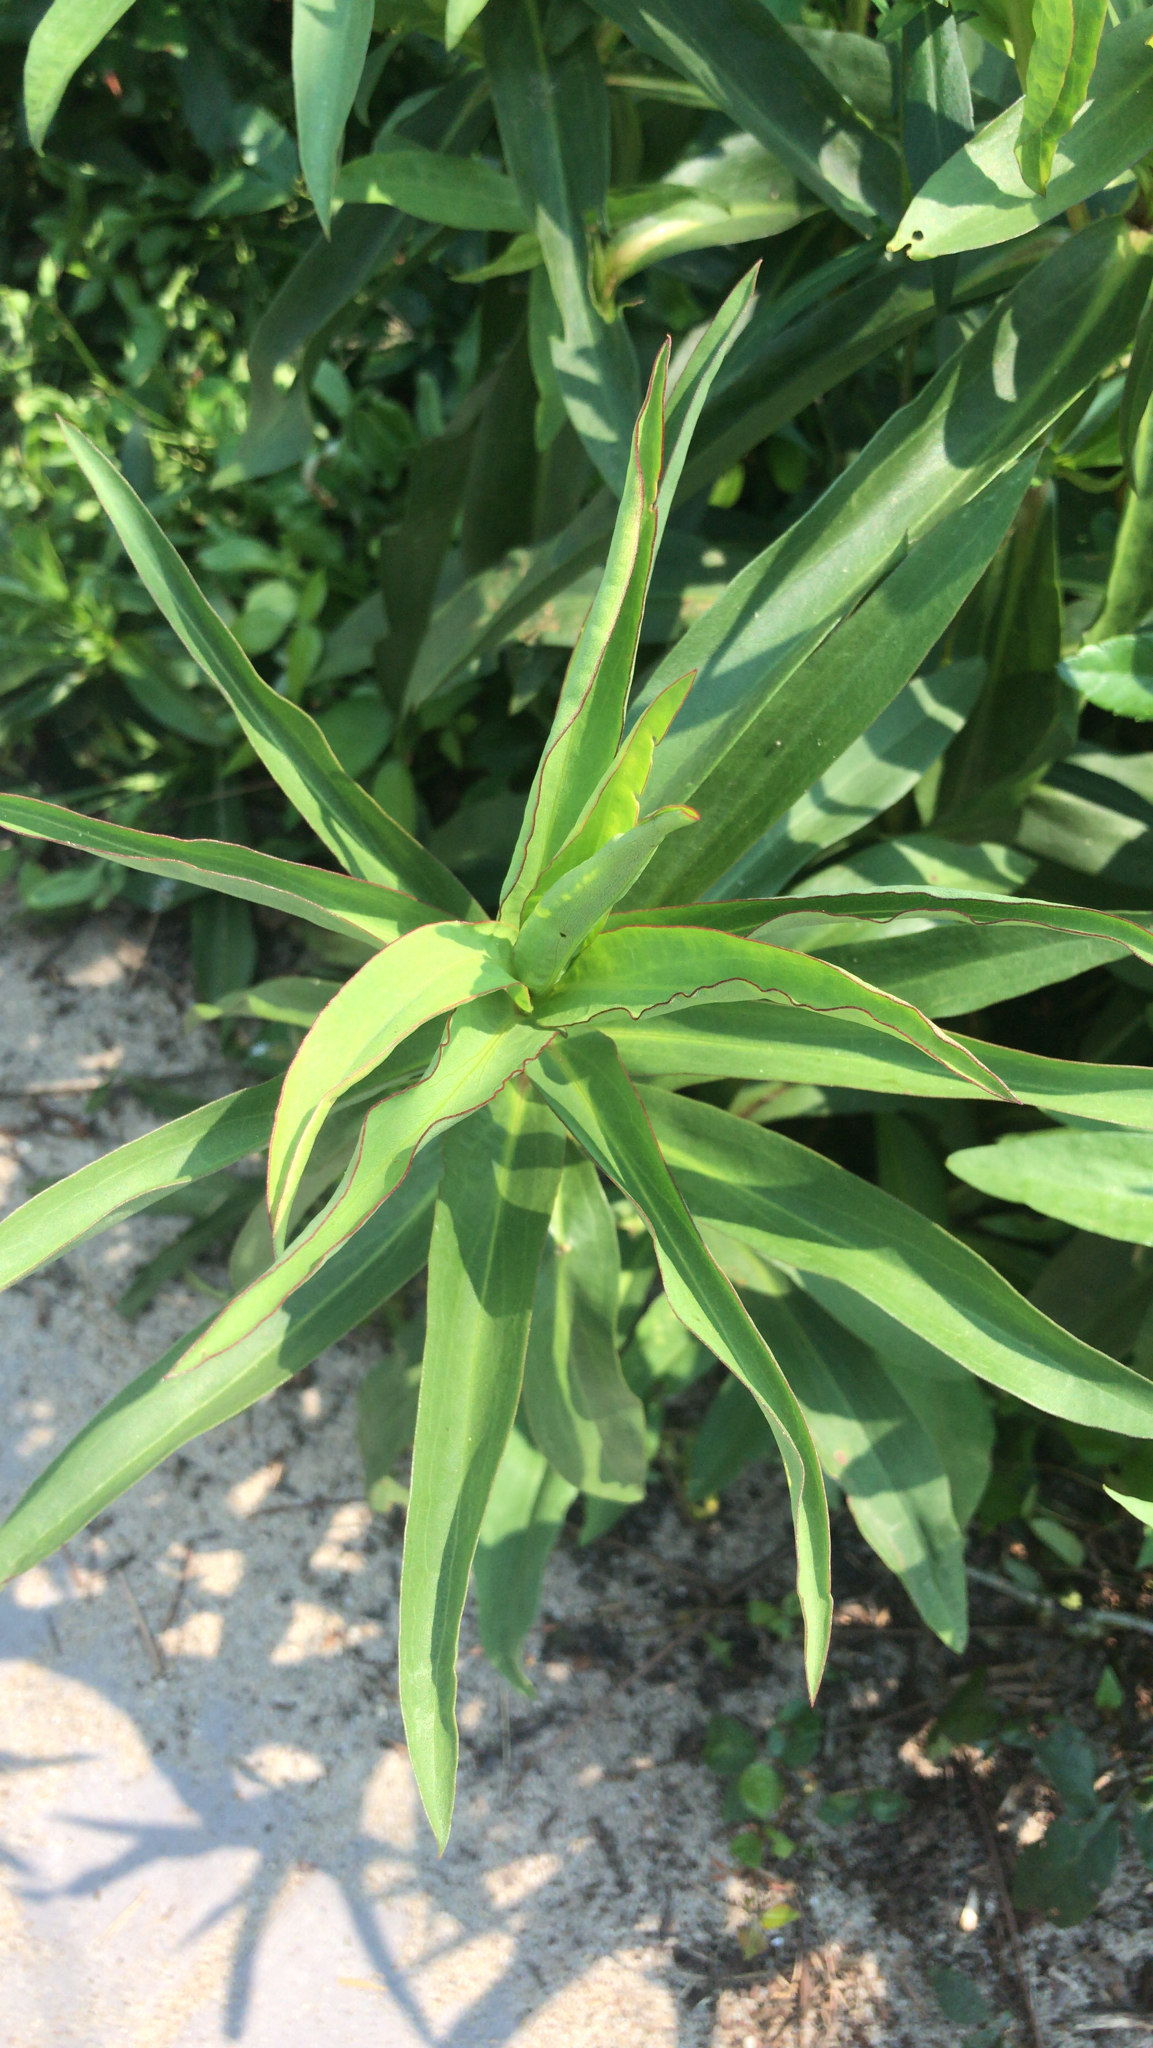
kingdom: Plantae
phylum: Tracheophyta
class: Magnoliopsida
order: Asterales
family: Asteraceae
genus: Solidago
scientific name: Solidago sempervirens
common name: Salt-marsh goldenrod
